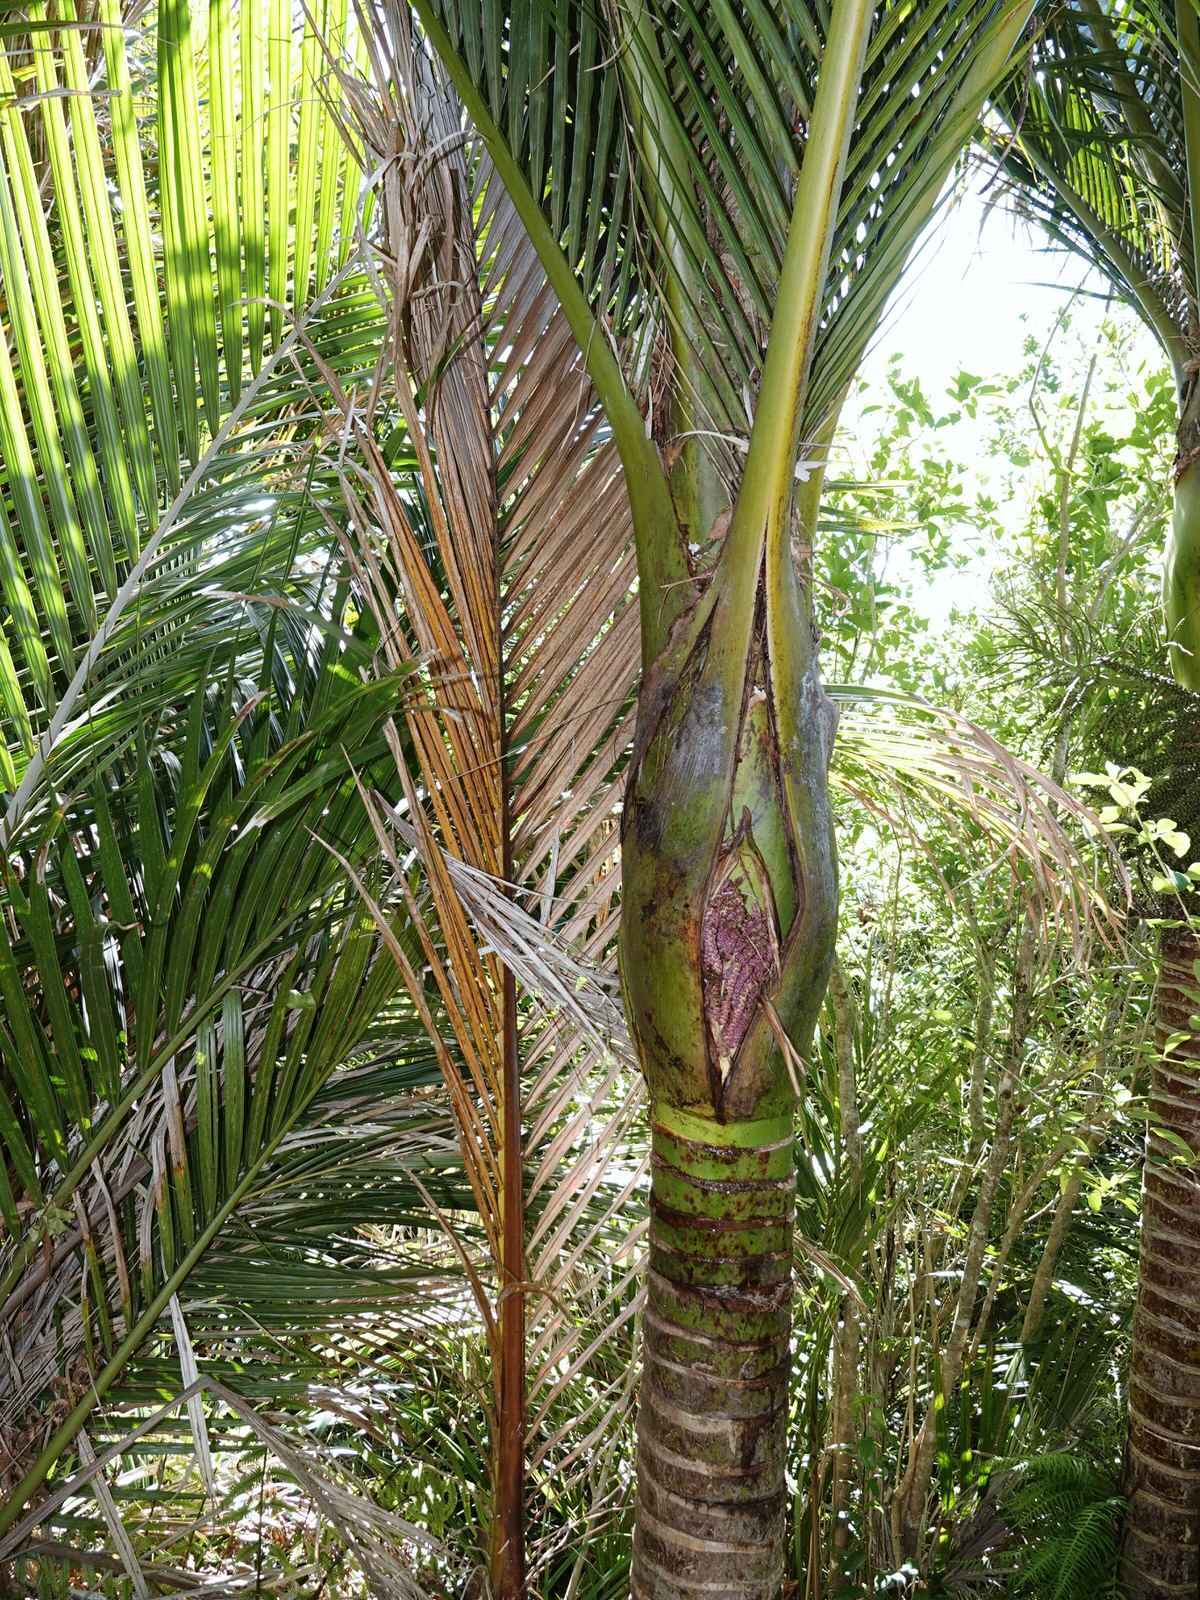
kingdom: Plantae
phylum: Tracheophyta
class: Liliopsida
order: Arecales
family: Arecaceae
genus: Rhopalostylis
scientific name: Rhopalostylis sapida
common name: Feather-duster palm
